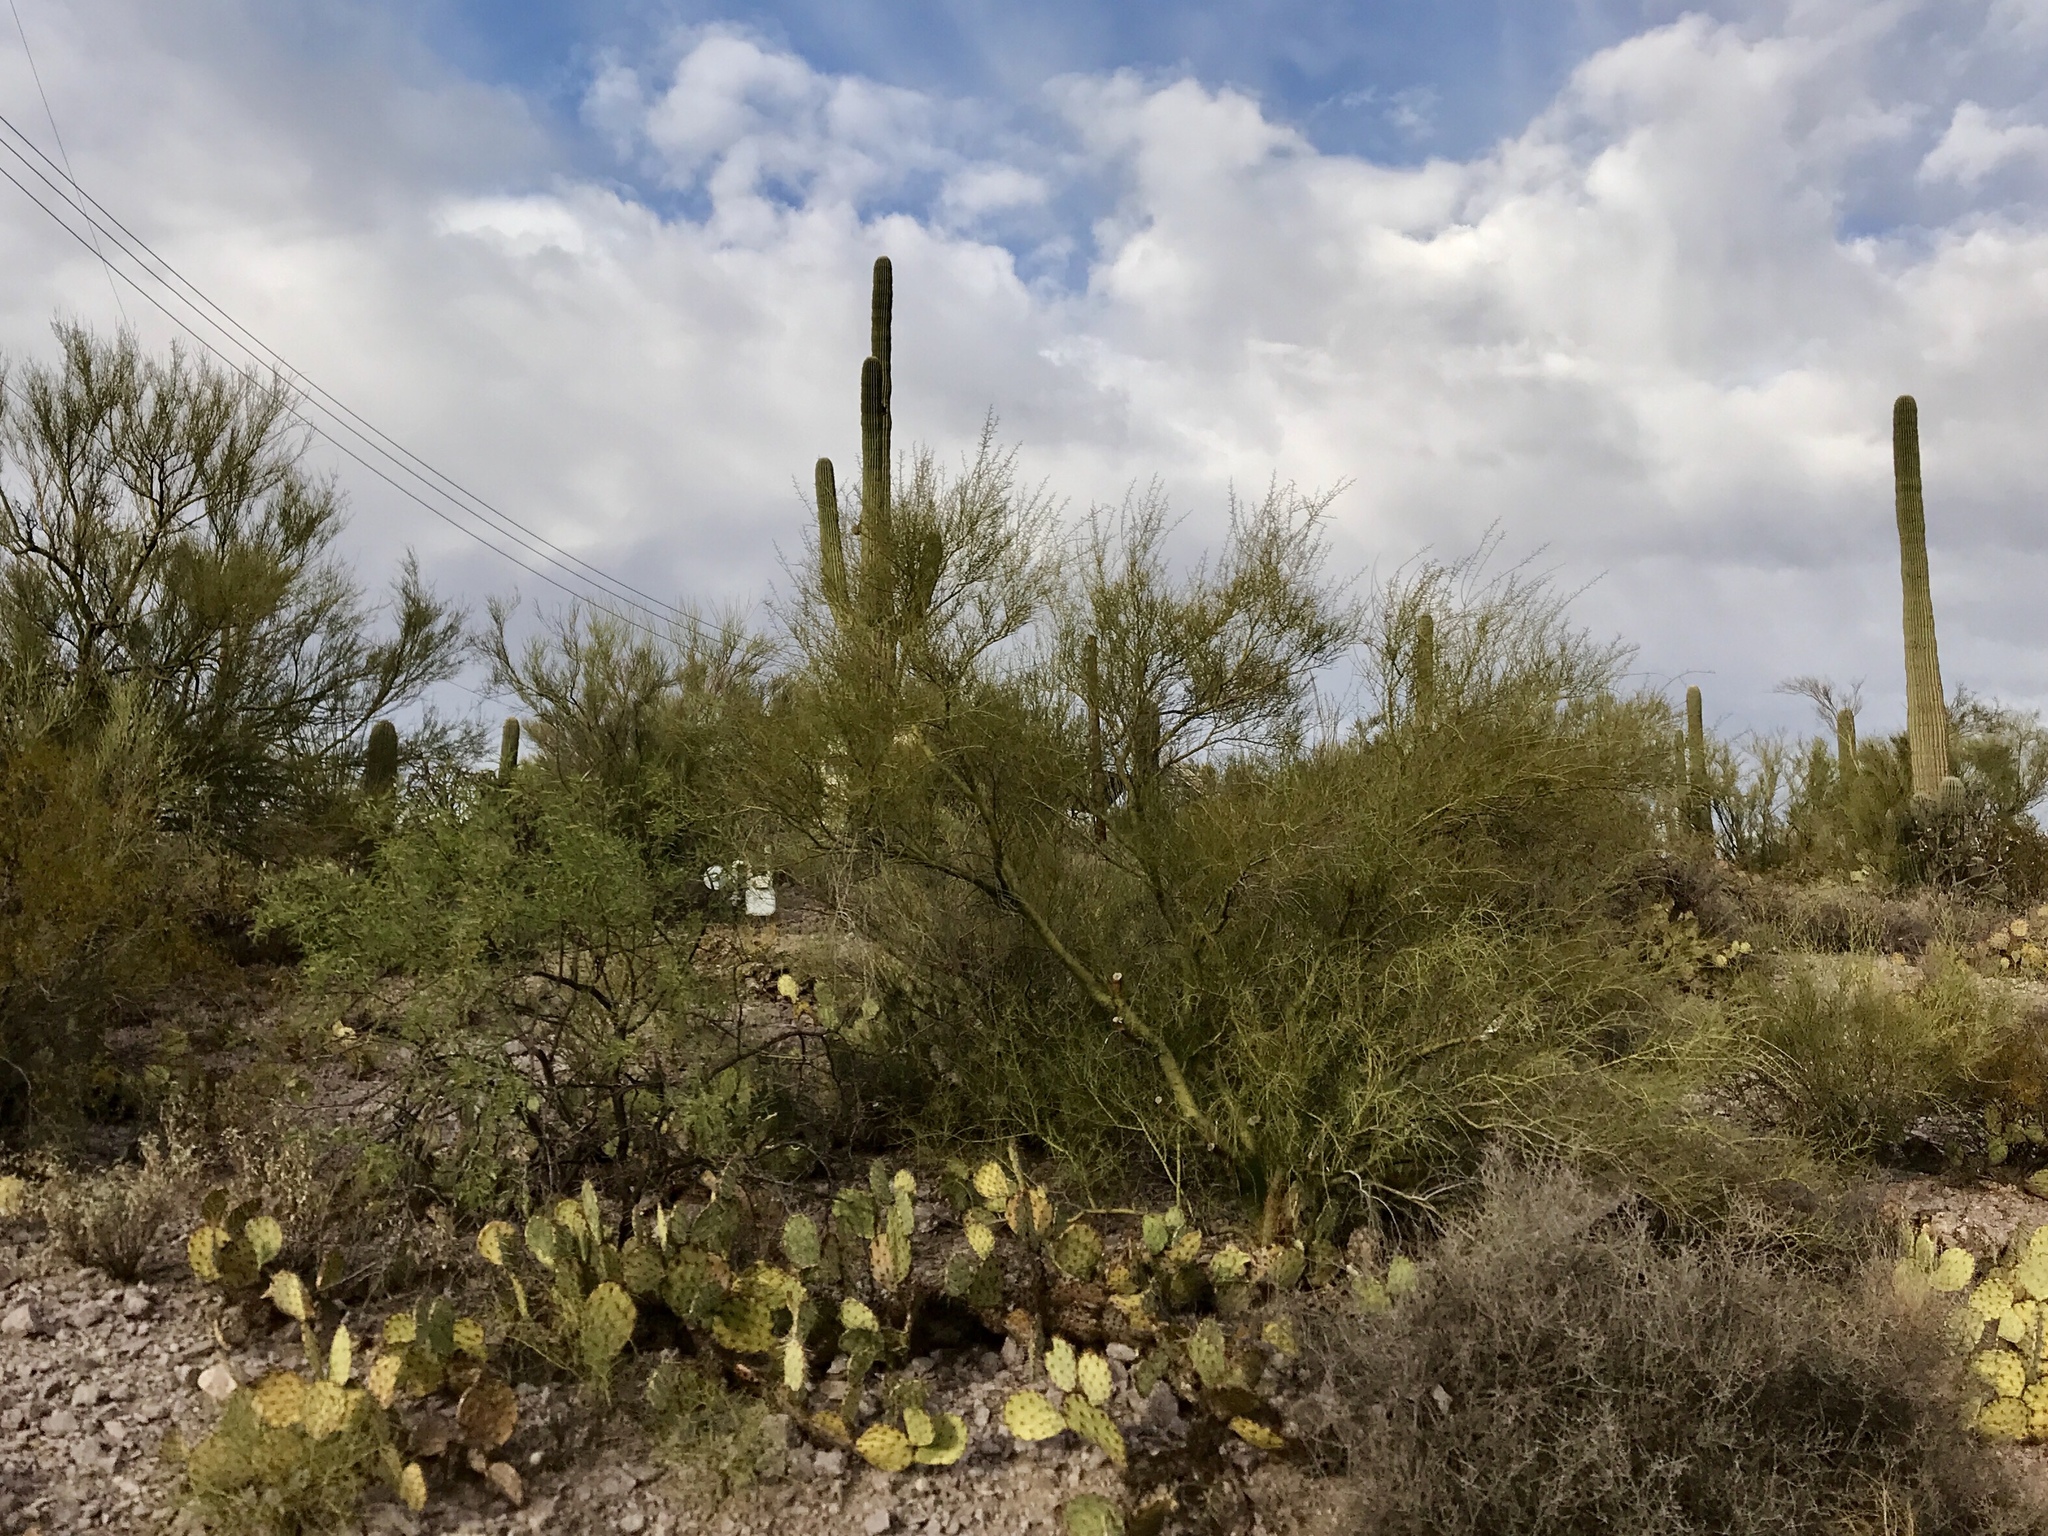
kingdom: Plantae
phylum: Tracheophyta
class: Magnoliopsida
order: Fabales
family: Fabaceae
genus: Parkinsonia
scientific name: Parkinsonia microphylla
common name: Yellow paloverde
